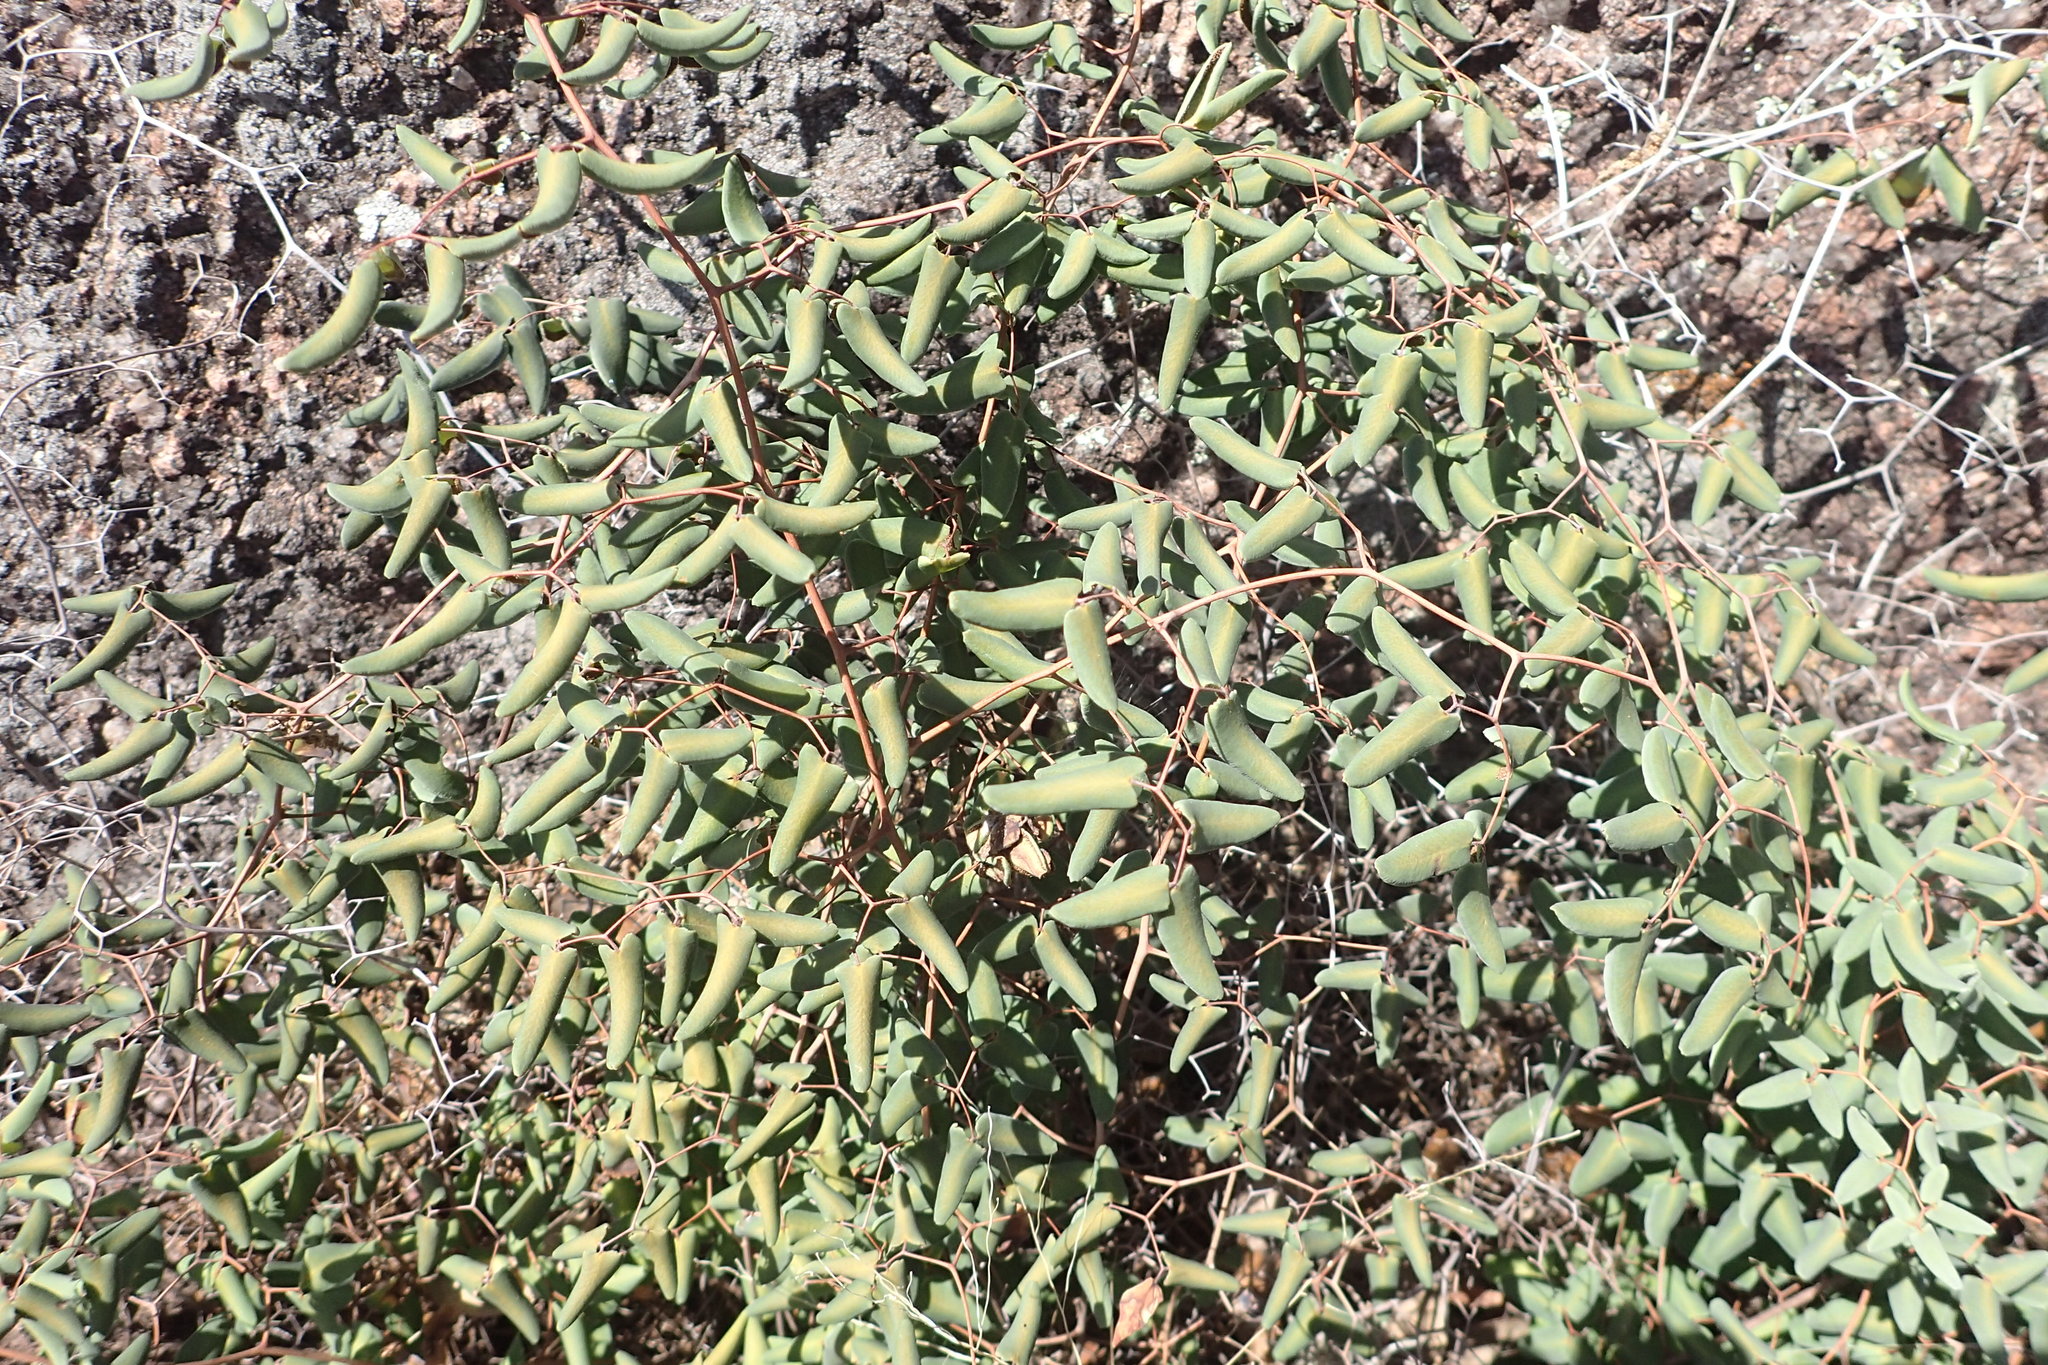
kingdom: Plantae
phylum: Tracheophyta
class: Polypodiopsida
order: Polypodiales
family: Pteridaceae
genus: Pellaea
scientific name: Pellaea ovata
